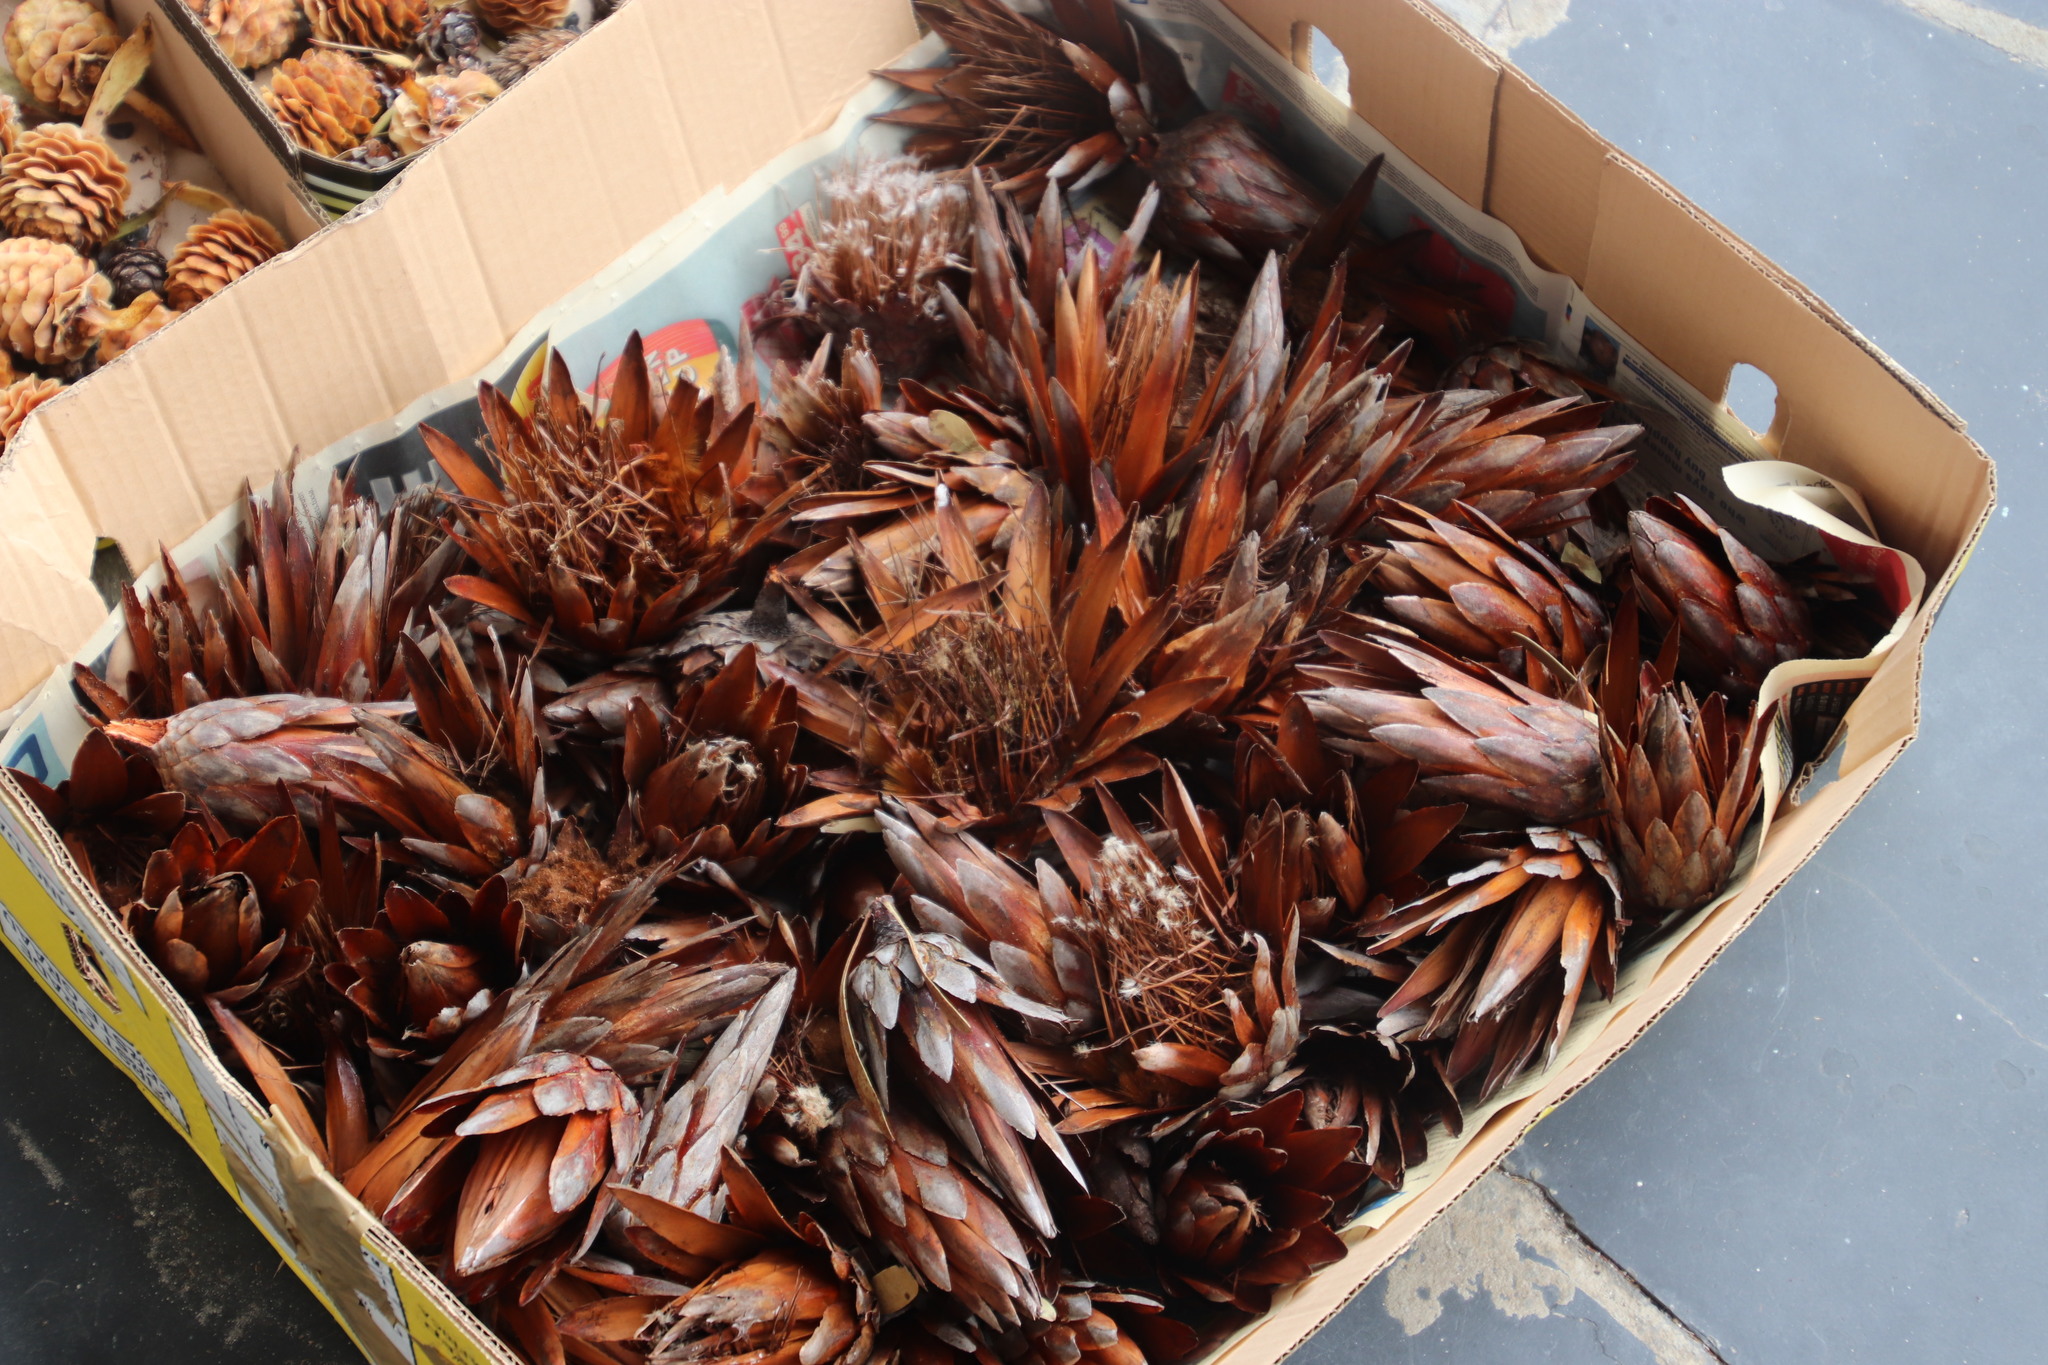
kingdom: Plantae
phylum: Tracheophyta
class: Magnoliopsida
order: Proteales
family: Proteaceae
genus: Protea
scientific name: Protea repens
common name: Sugarbush
